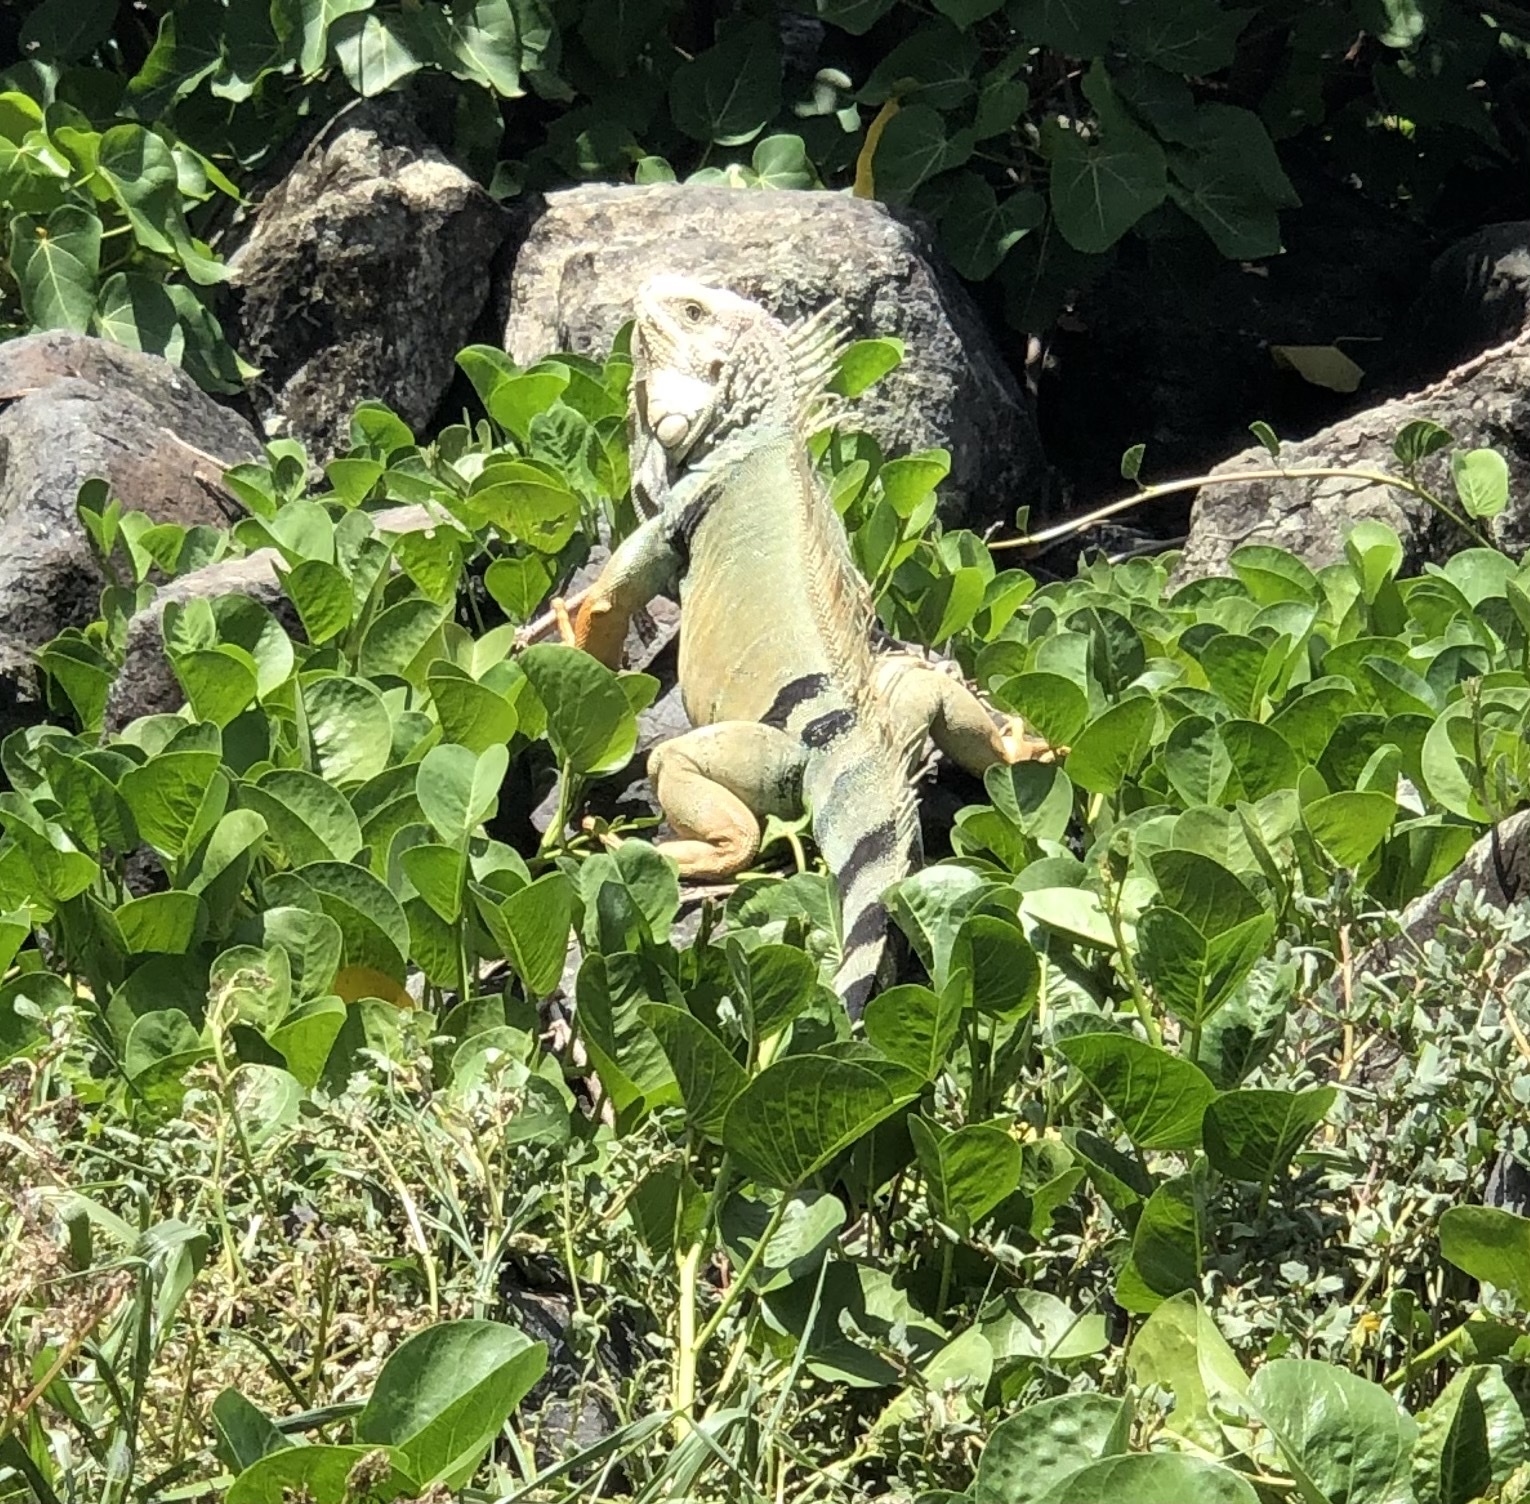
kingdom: Animalia
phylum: Chordata
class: Squamata
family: Iguanidae
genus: Iguana
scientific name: Iguana iguana
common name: Green iguana
